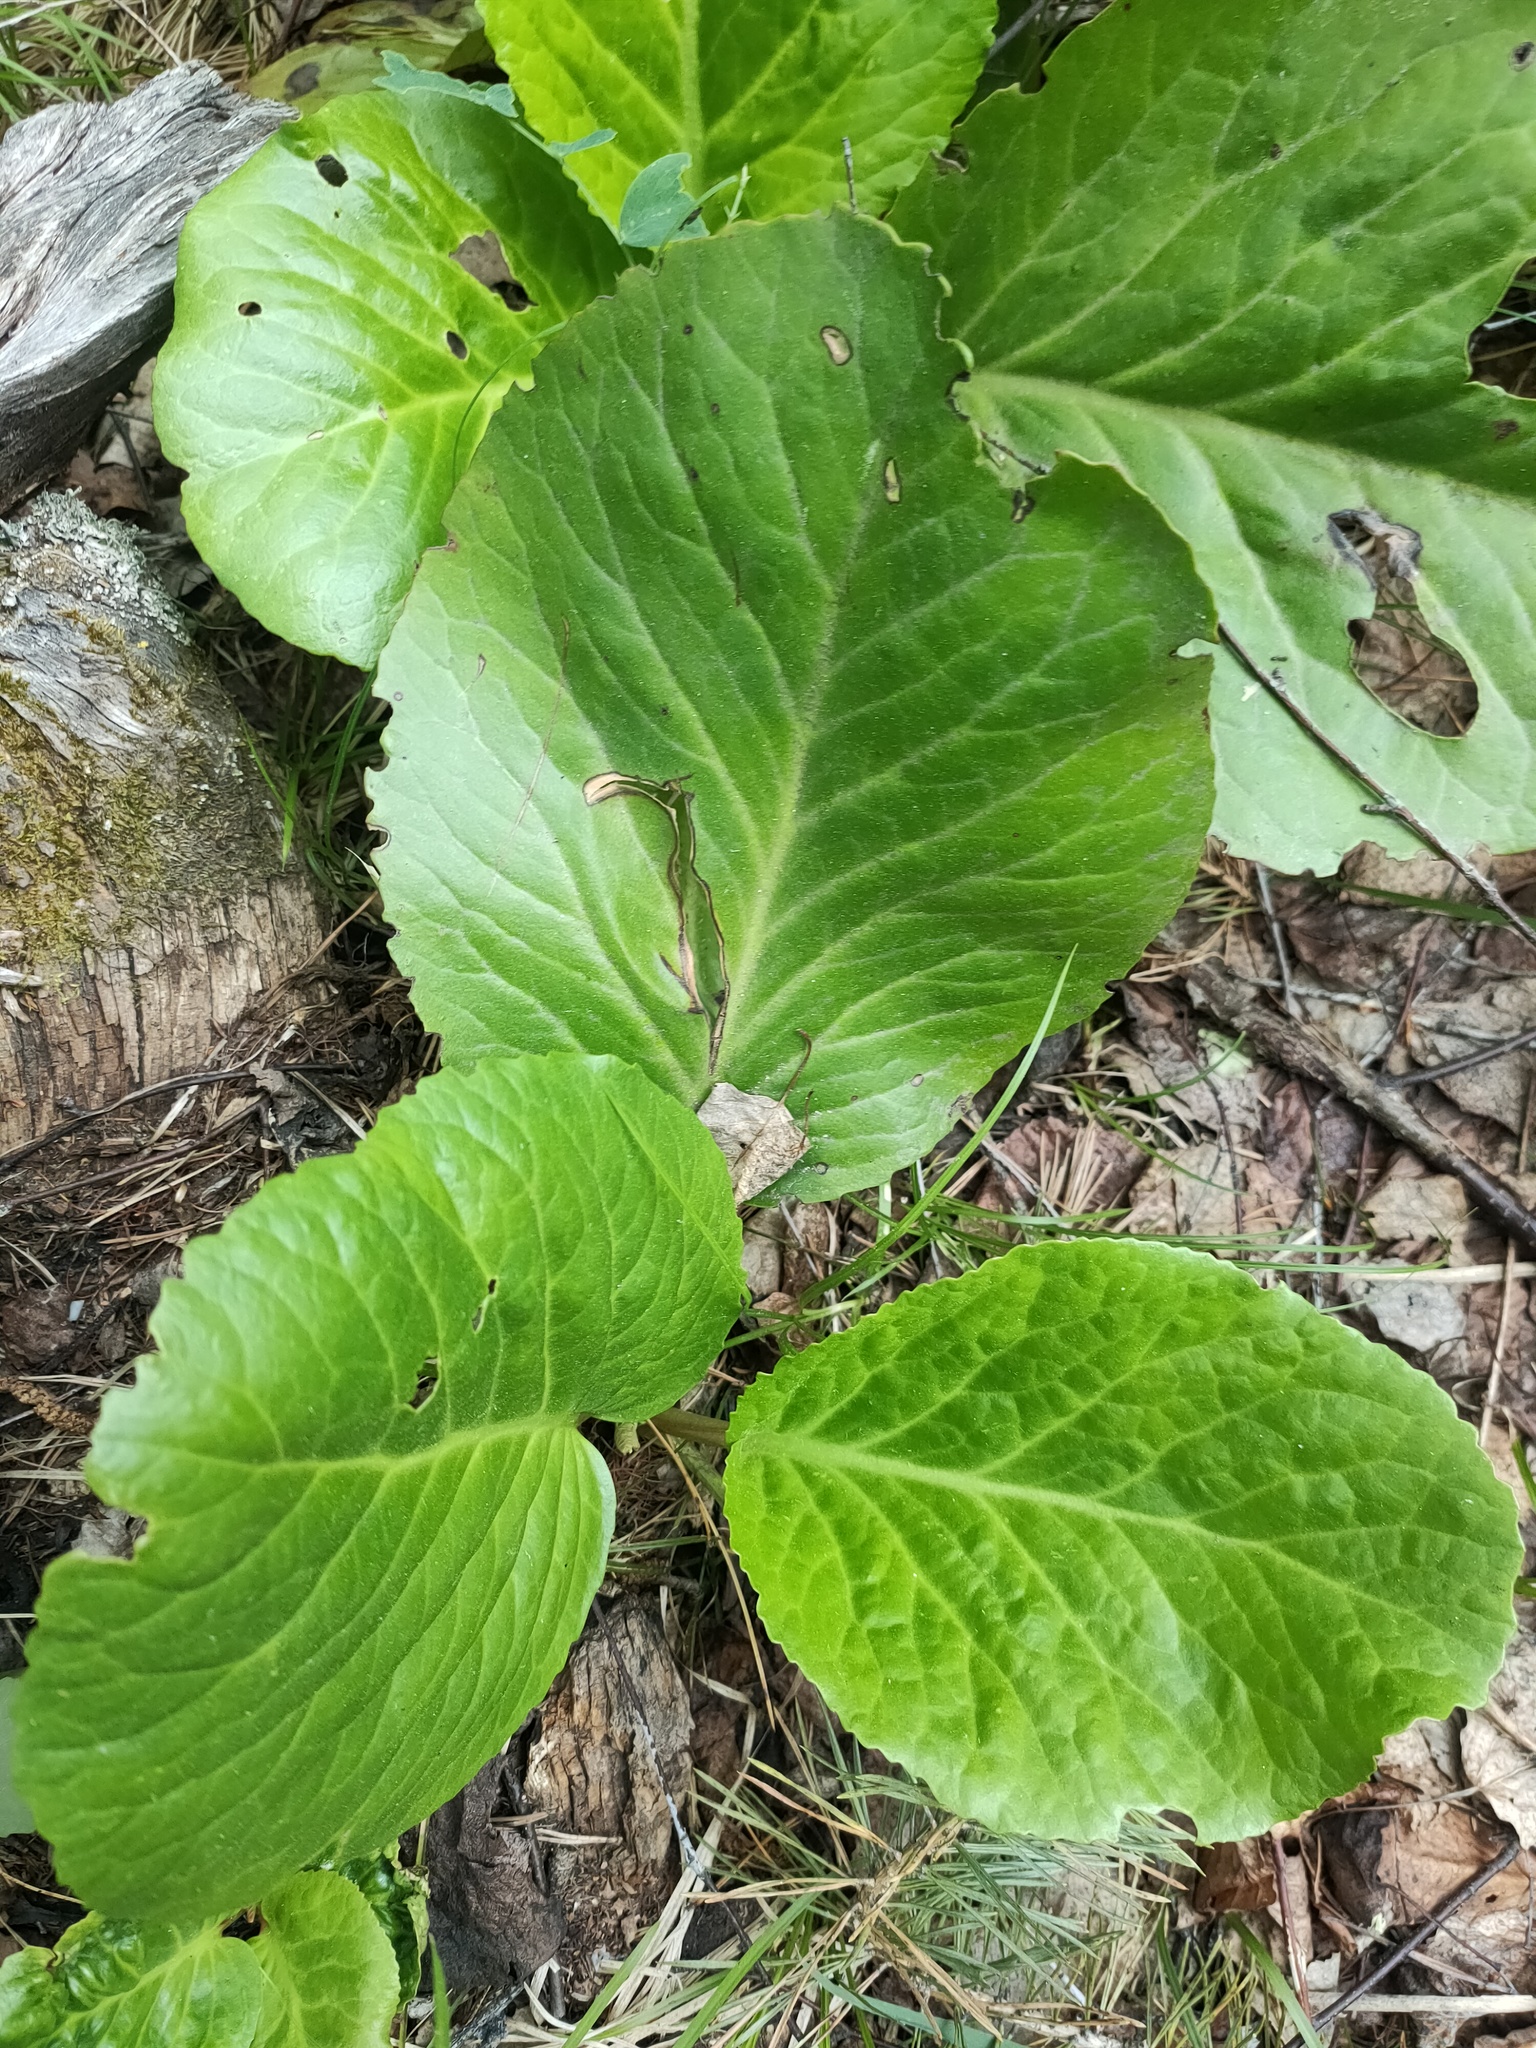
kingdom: Plantae
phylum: Tracheophyta
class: Magnoliopsida
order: Saxifragales
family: Saxifragaceae
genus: Bergenia
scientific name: Bergenia crassifolia
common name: Elephant-ears
